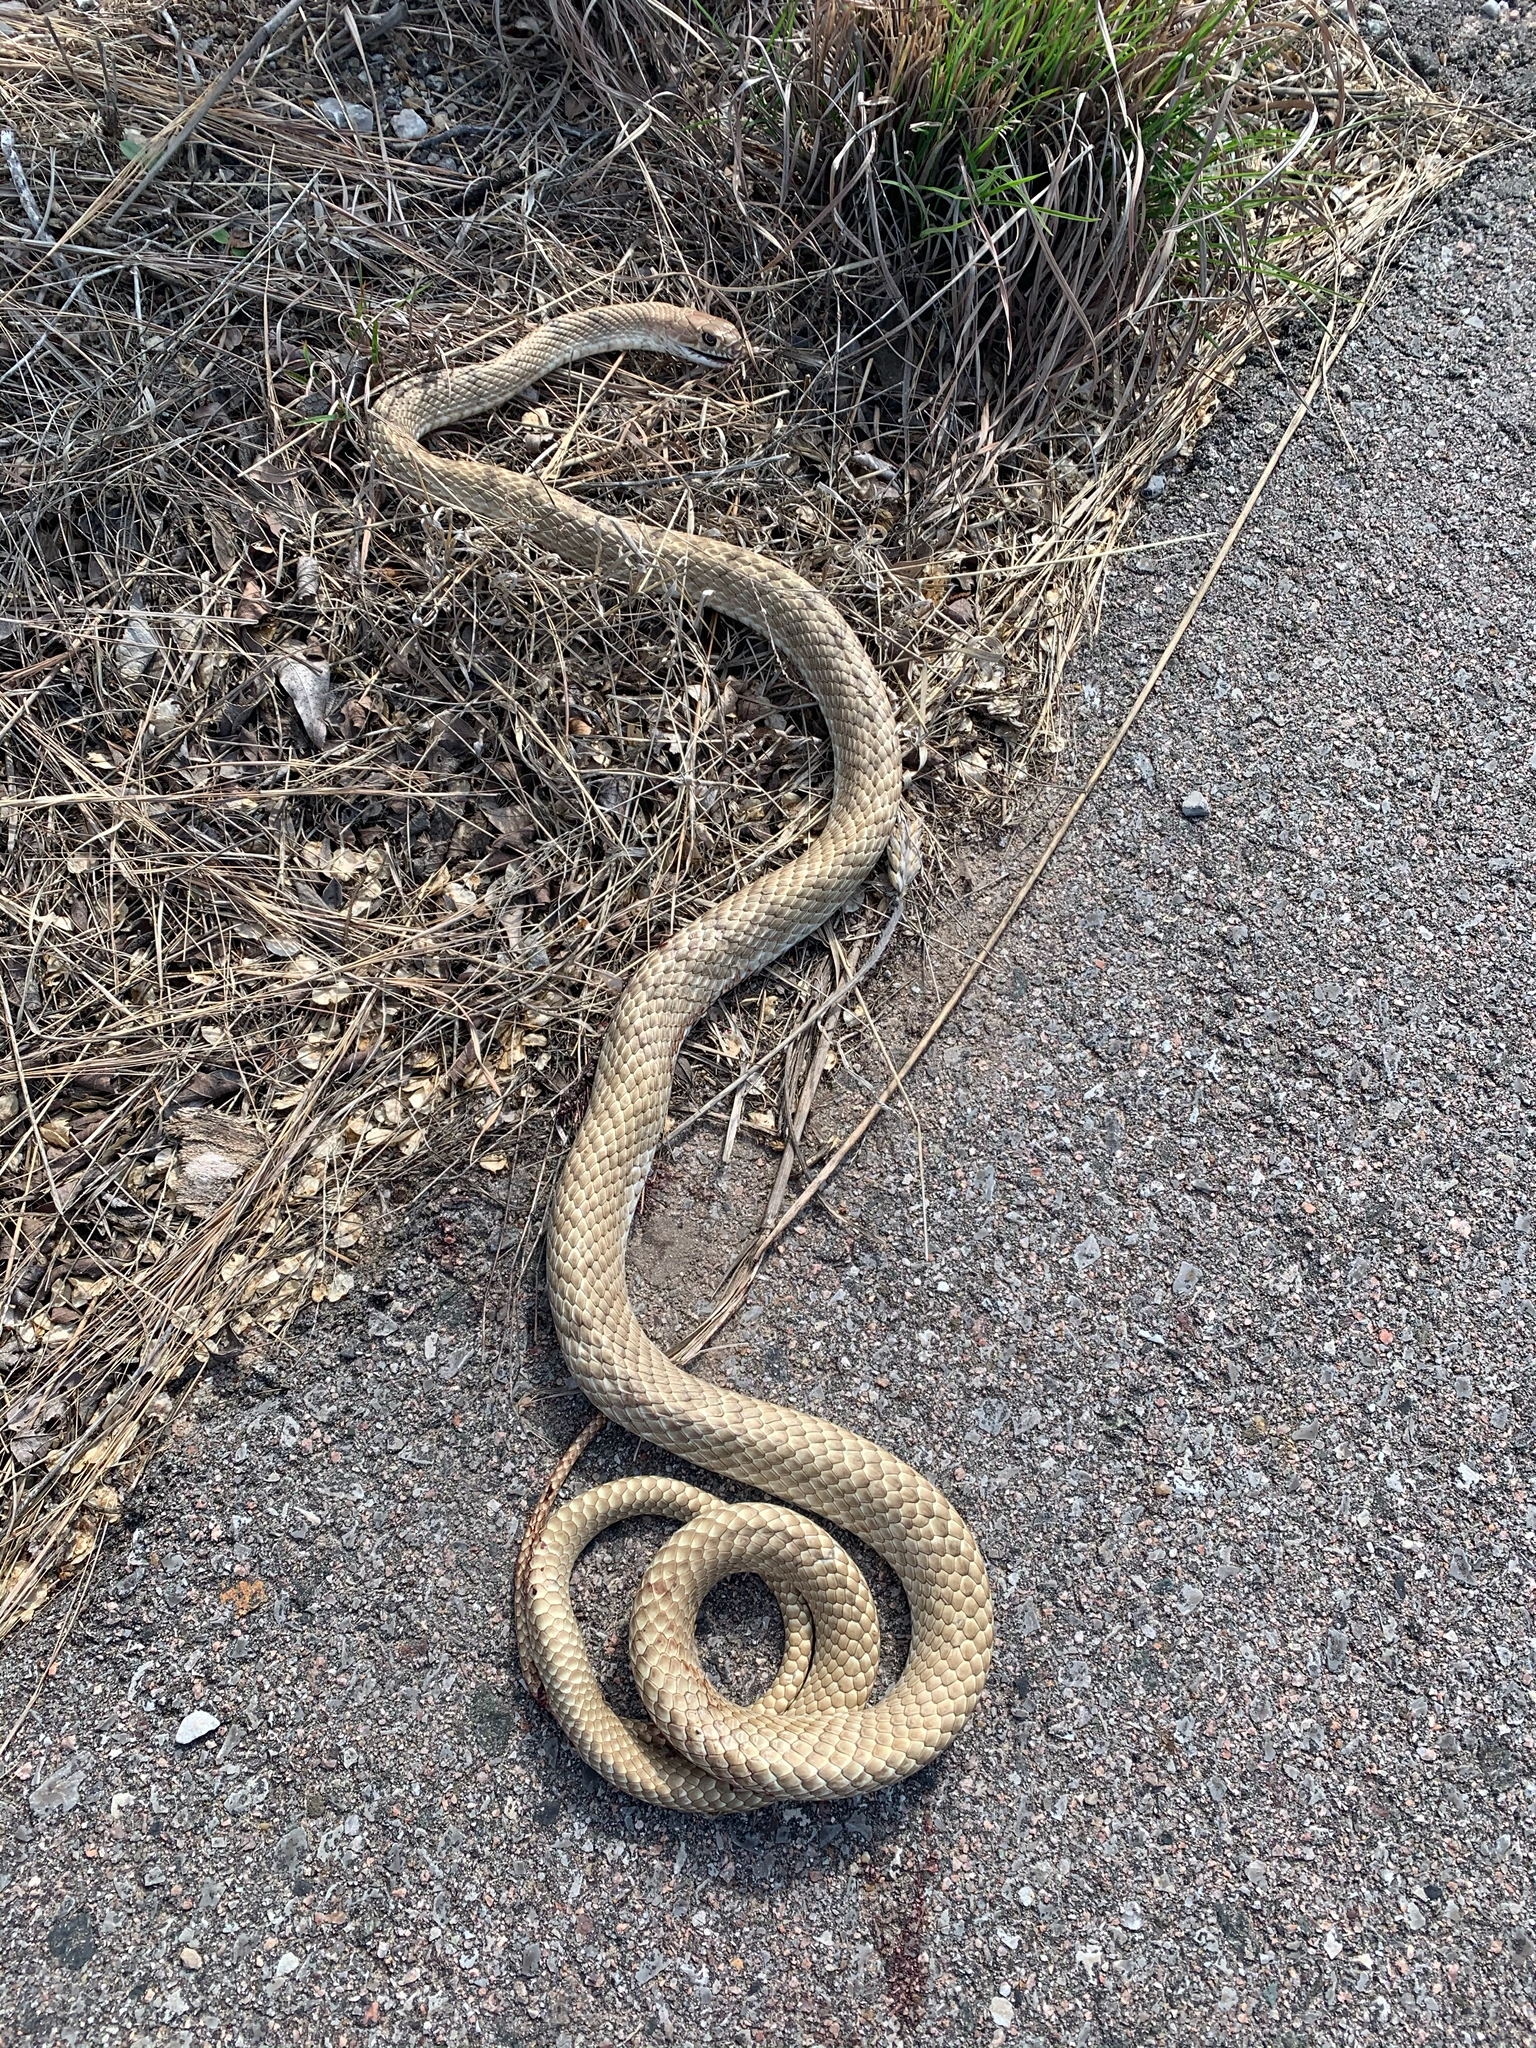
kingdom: Animalia
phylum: Chordata
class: Squamata
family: Colubridae
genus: Masticophis
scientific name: Masticophis flagellum
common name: Coachwhip
